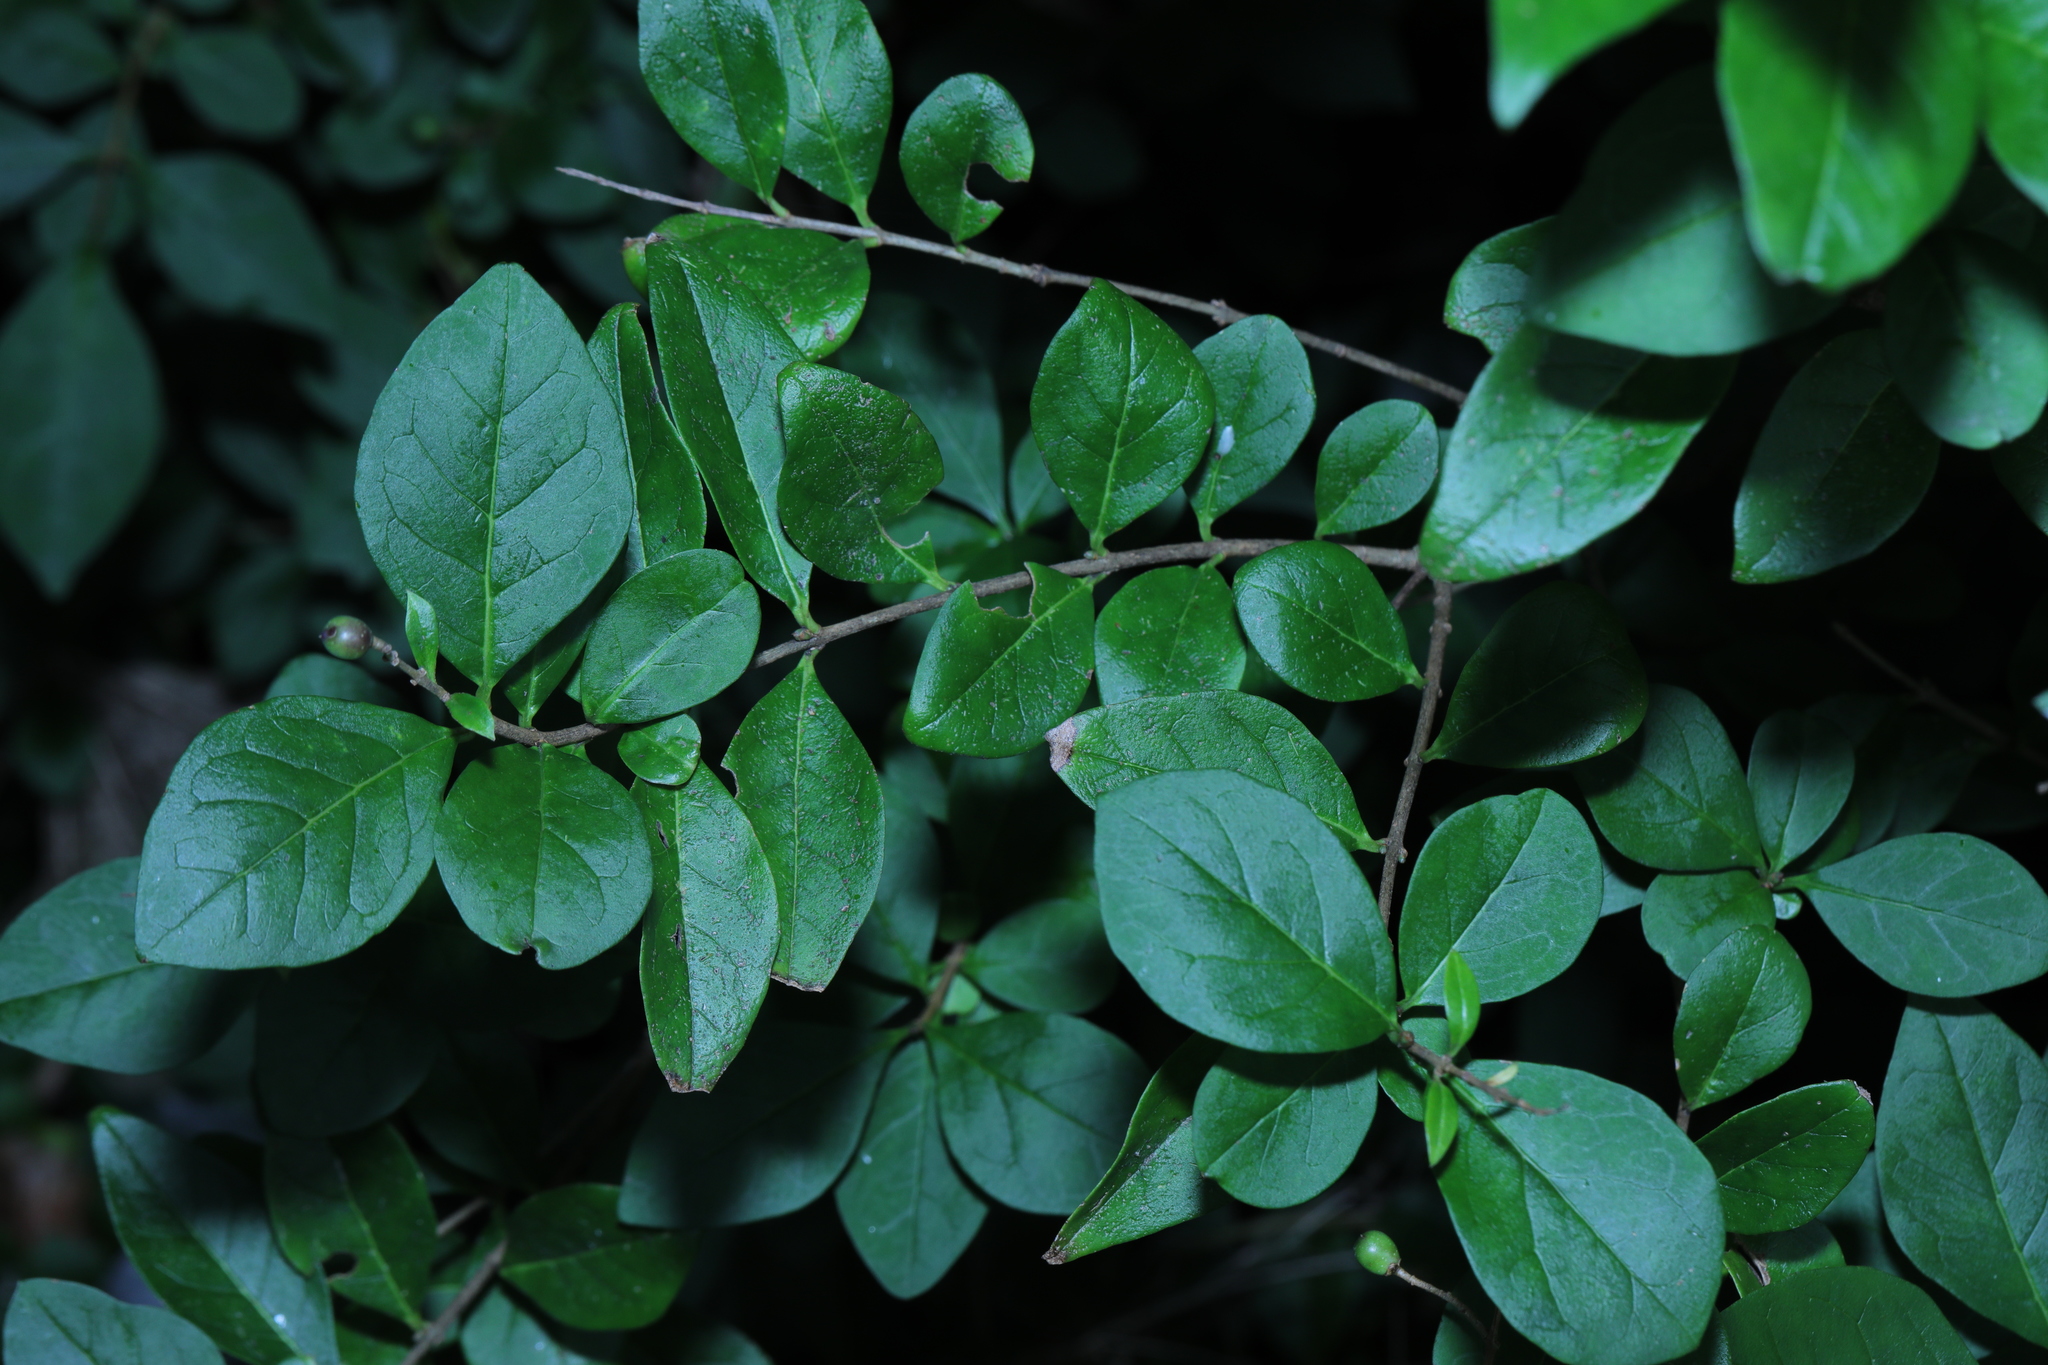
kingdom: Plantae
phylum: Tracheophyta
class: Magnoliopsida
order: Lamiales
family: Oleaceae
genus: Ligustrum
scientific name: Ligustrum ovalifolium
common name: California privet
